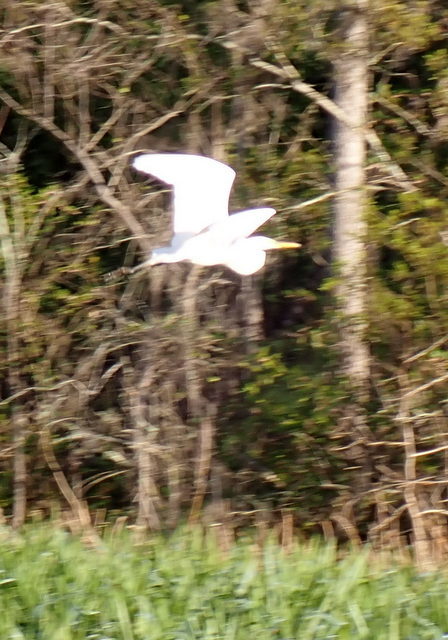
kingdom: Animalia
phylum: Chordata
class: Aves
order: Pelecaniformes
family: Ardeidae
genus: Ardea
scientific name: Ardea alba
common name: Great egret
